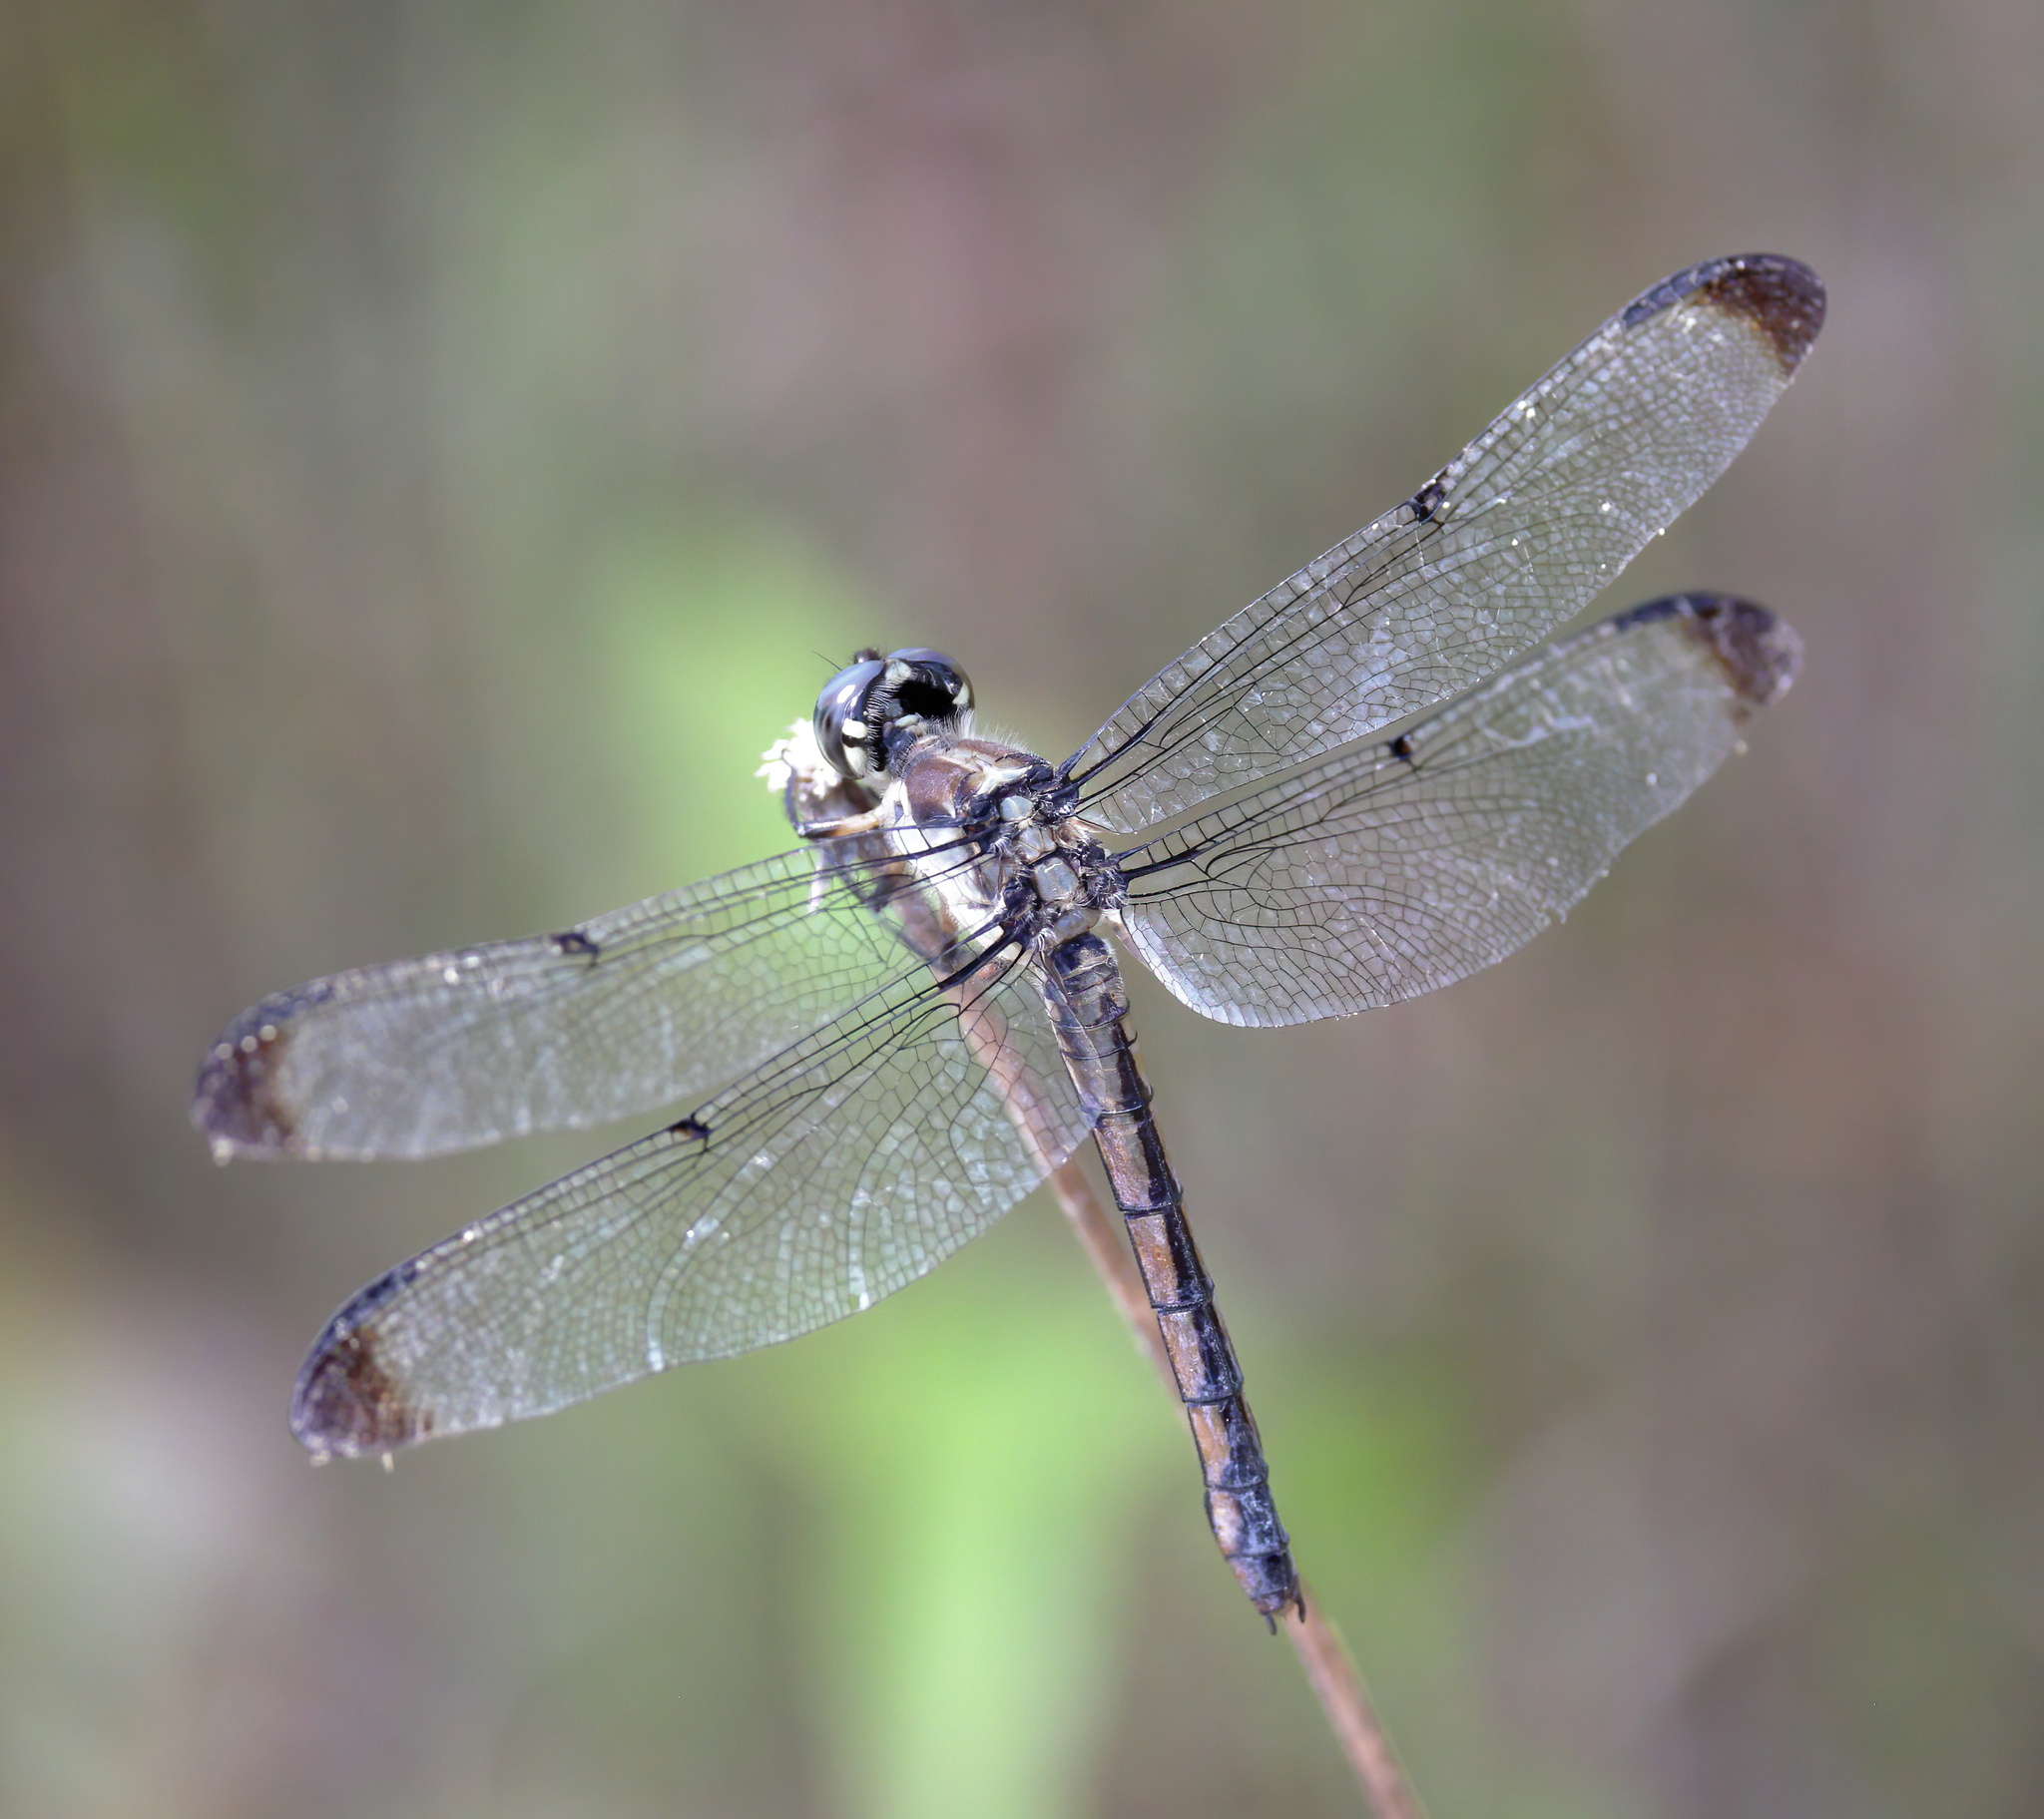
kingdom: Animalia
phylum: Arthropoda
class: Insecta
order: Odonata
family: Libellulidae
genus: Libellula
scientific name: Libellula vibrans
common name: Great blue skimmer
